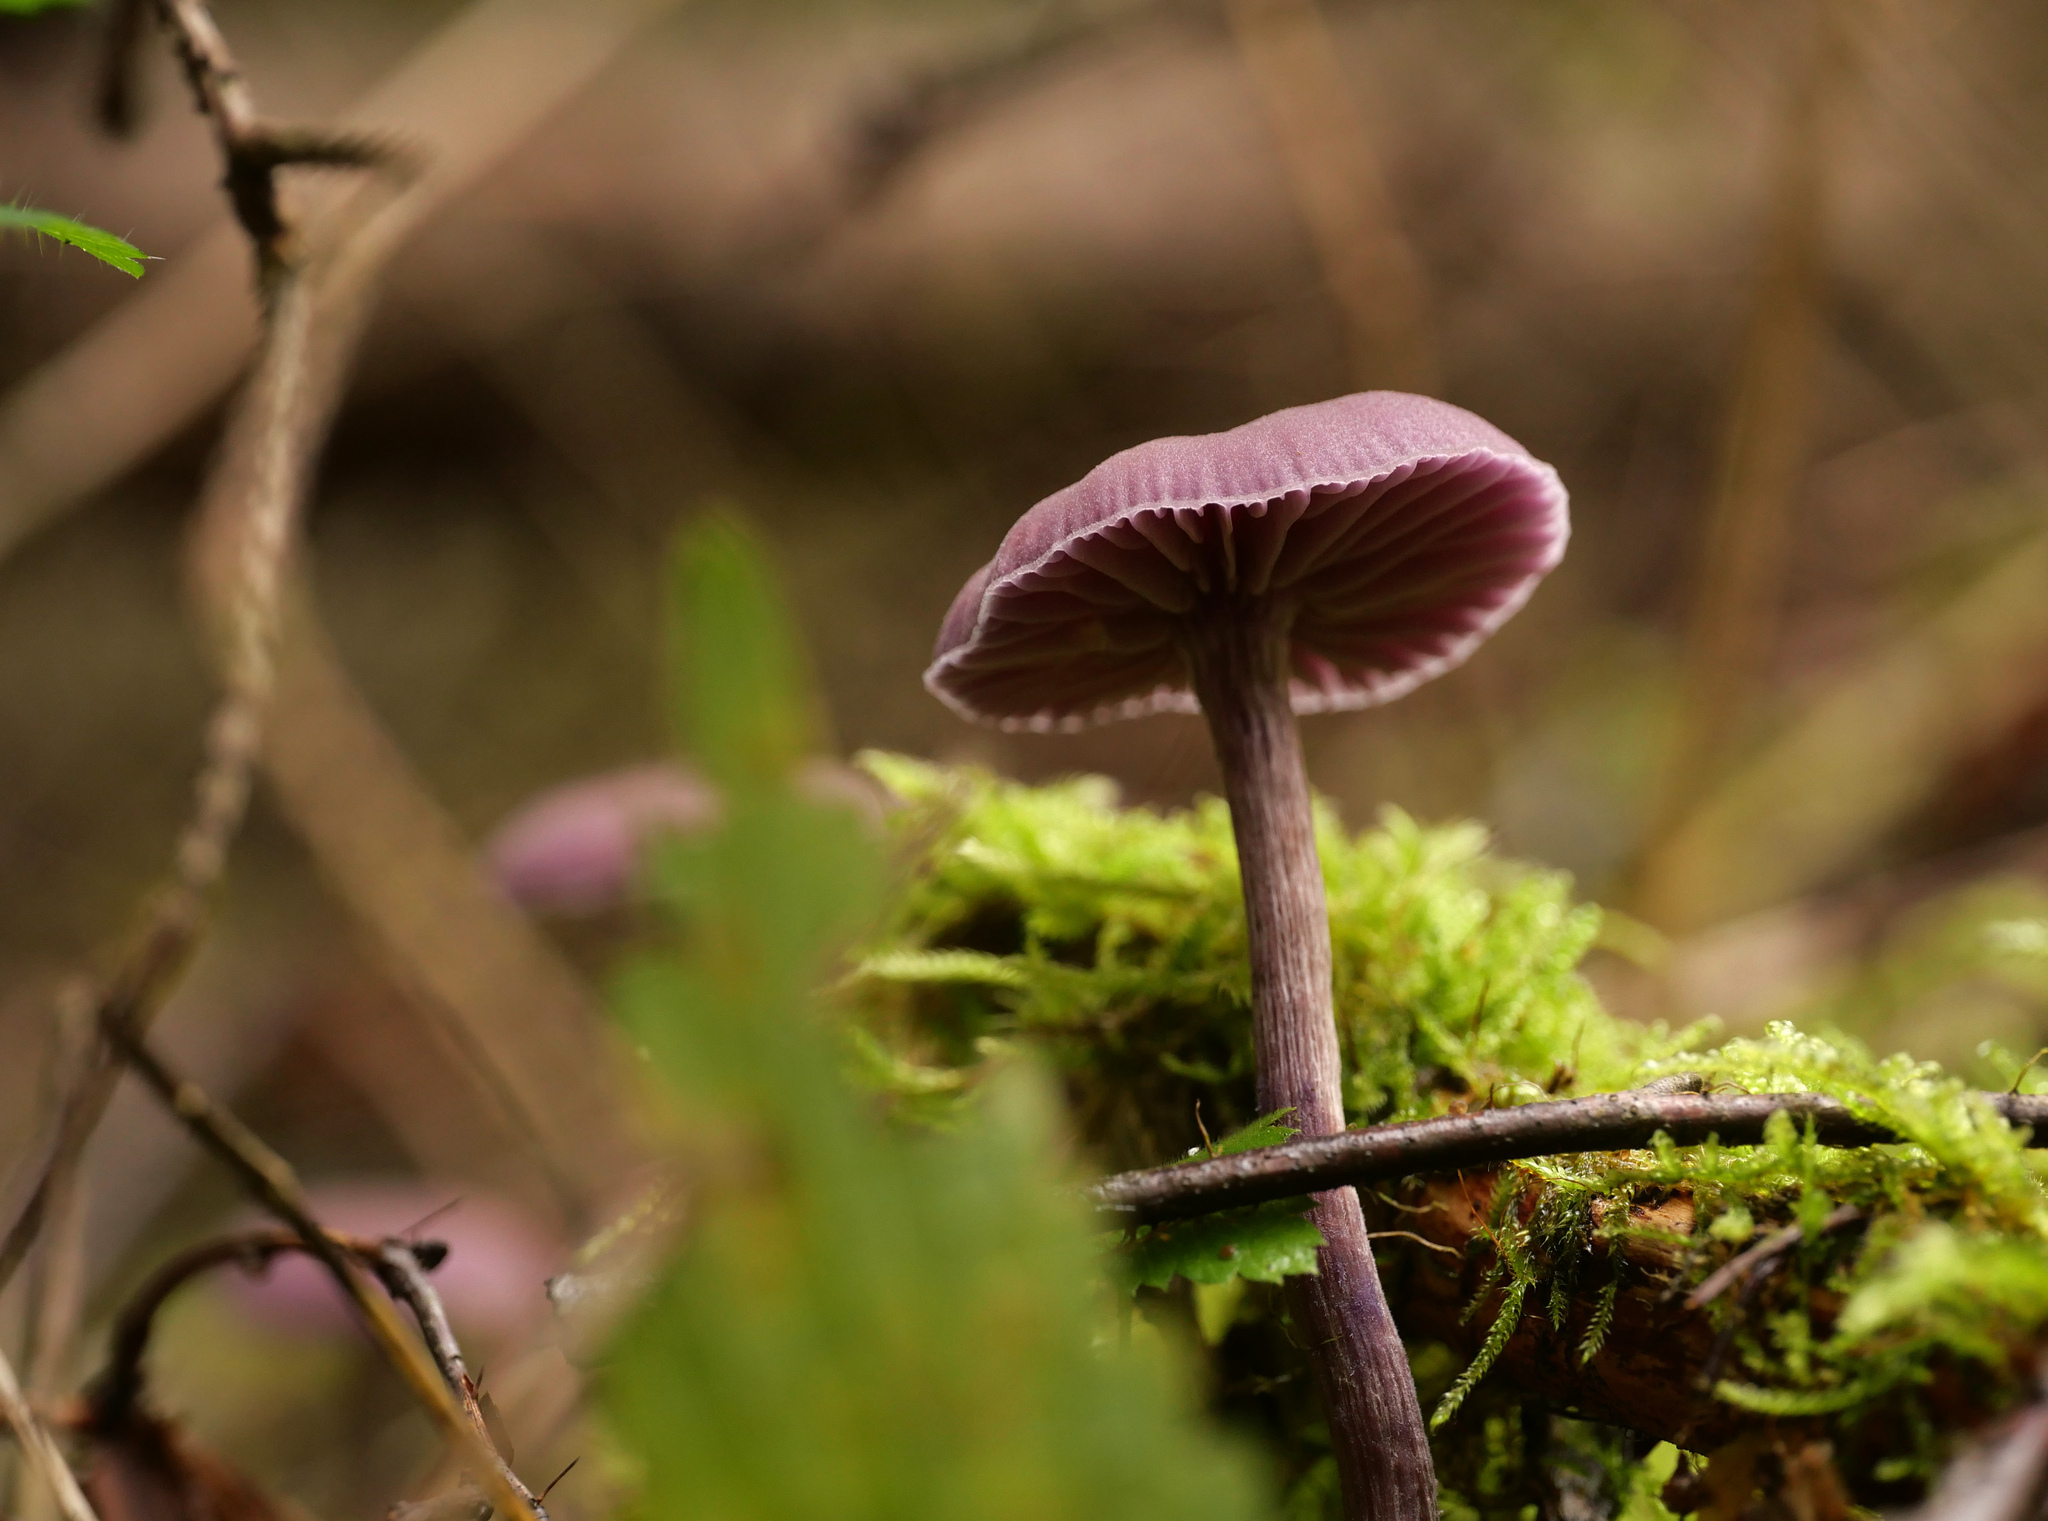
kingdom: Fungi
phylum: Basidiomycota
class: Agaricomycetes
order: Agaricales
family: Hydnangiaceae
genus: Laccaria
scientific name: Laccaria amethystina
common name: Amethyst deceiver
